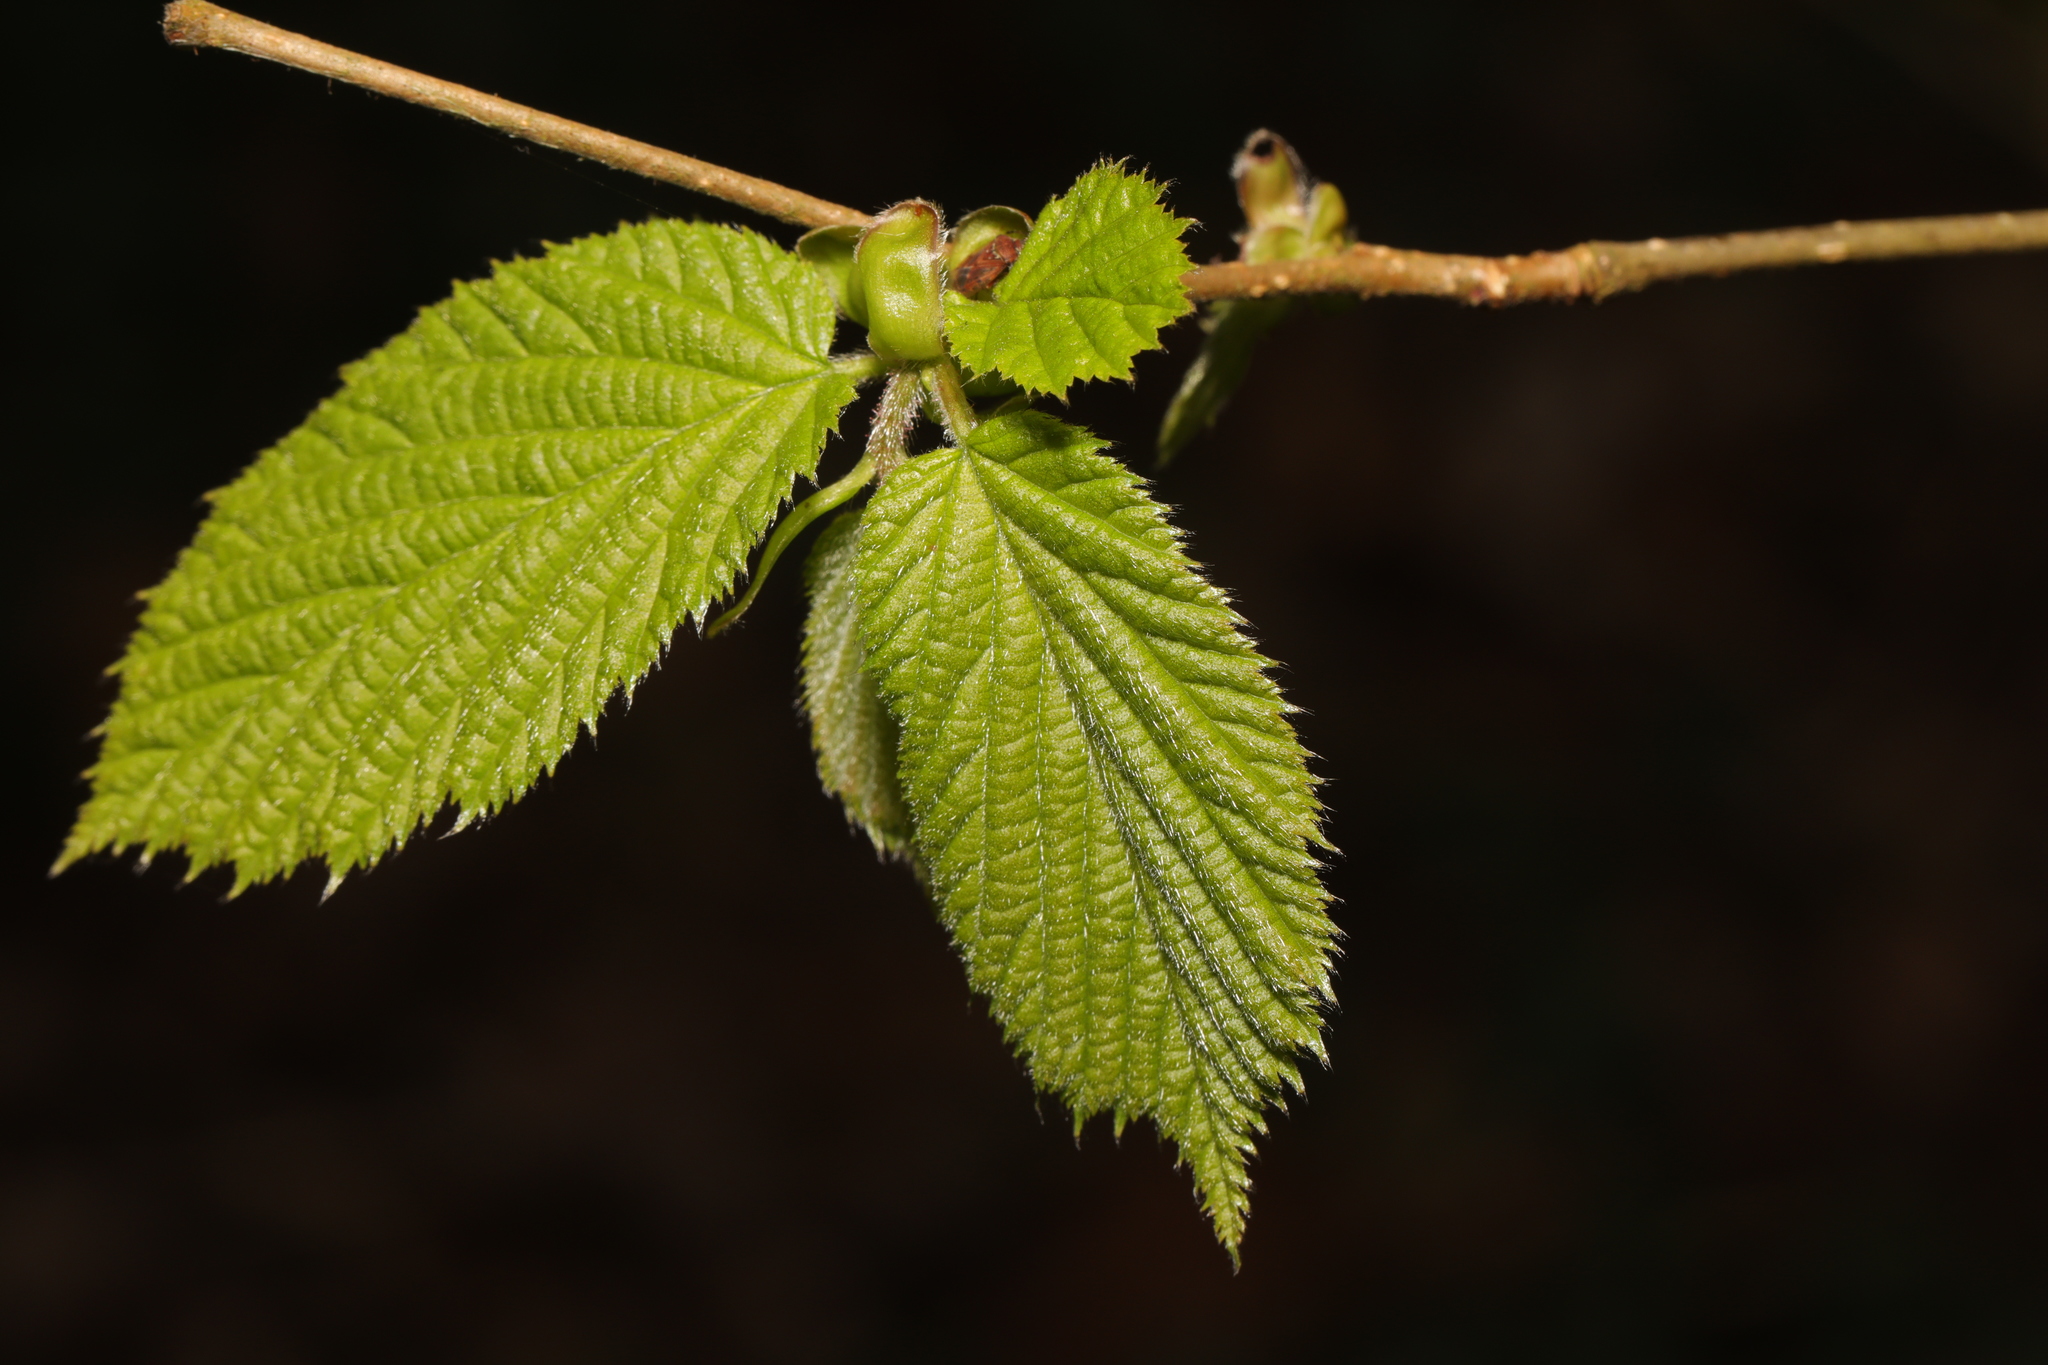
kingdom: Plantae
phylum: Tracheophyta
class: Magnoliopsida
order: Fagales
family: Betulaceae
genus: Corylus
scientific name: Corylus avellana
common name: European hazel
